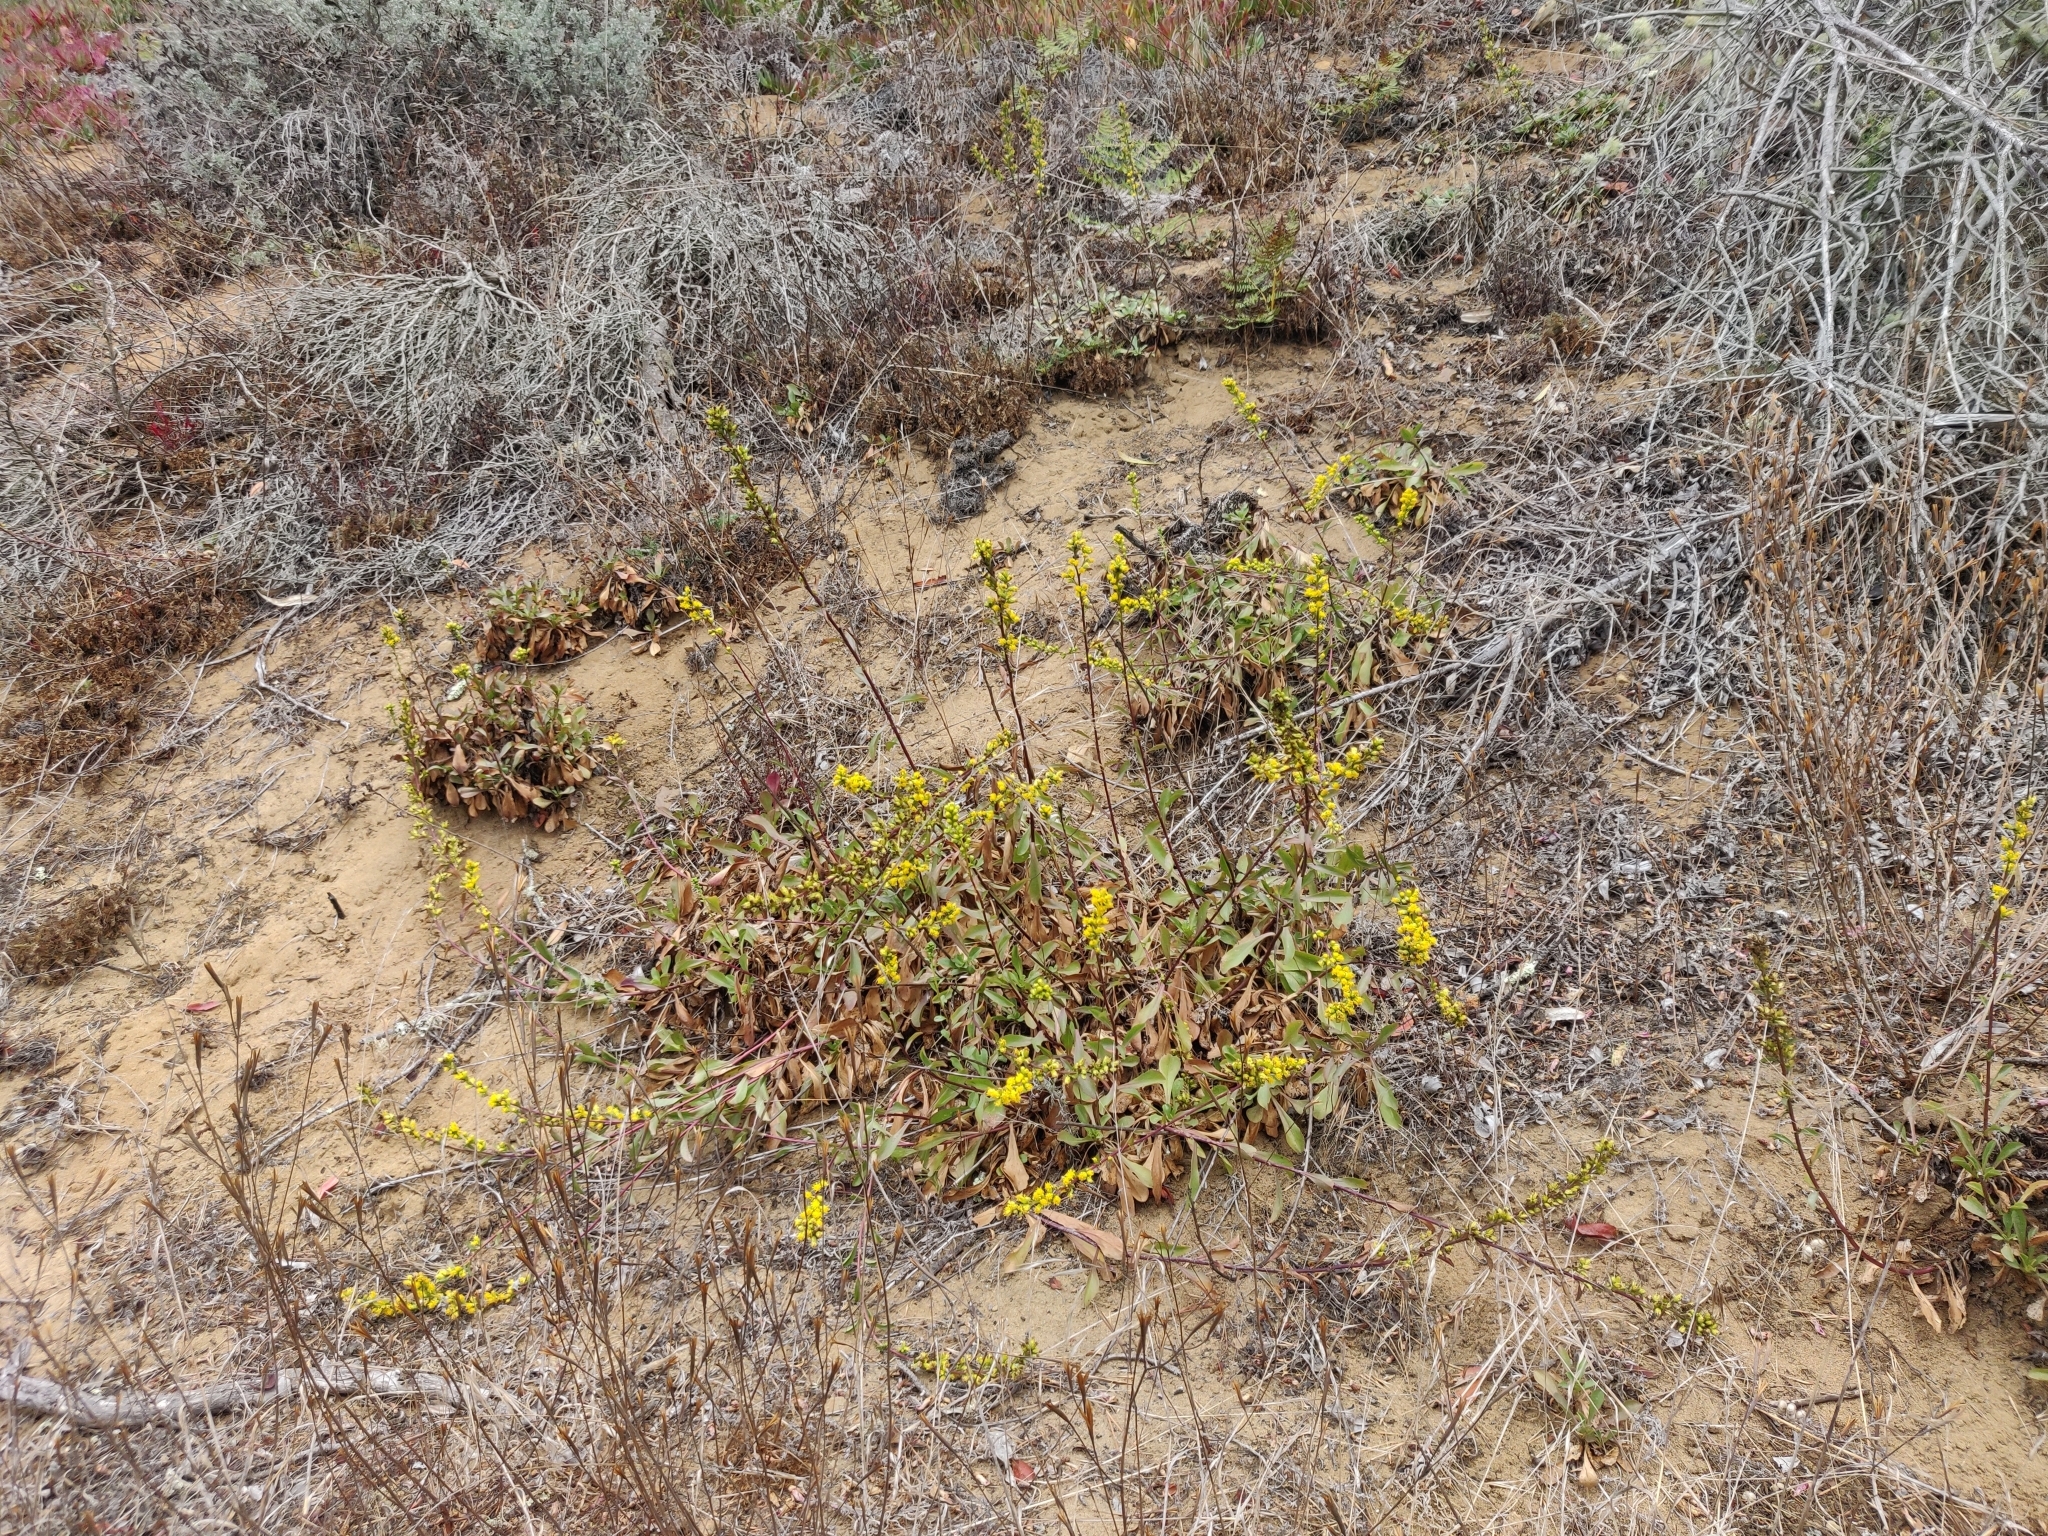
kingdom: Plantae
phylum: Tracheophyta
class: Magnoliopsida
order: Asterales
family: Asteraceae
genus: Solidago
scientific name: Solidago spathulata
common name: Coast goldenrod
